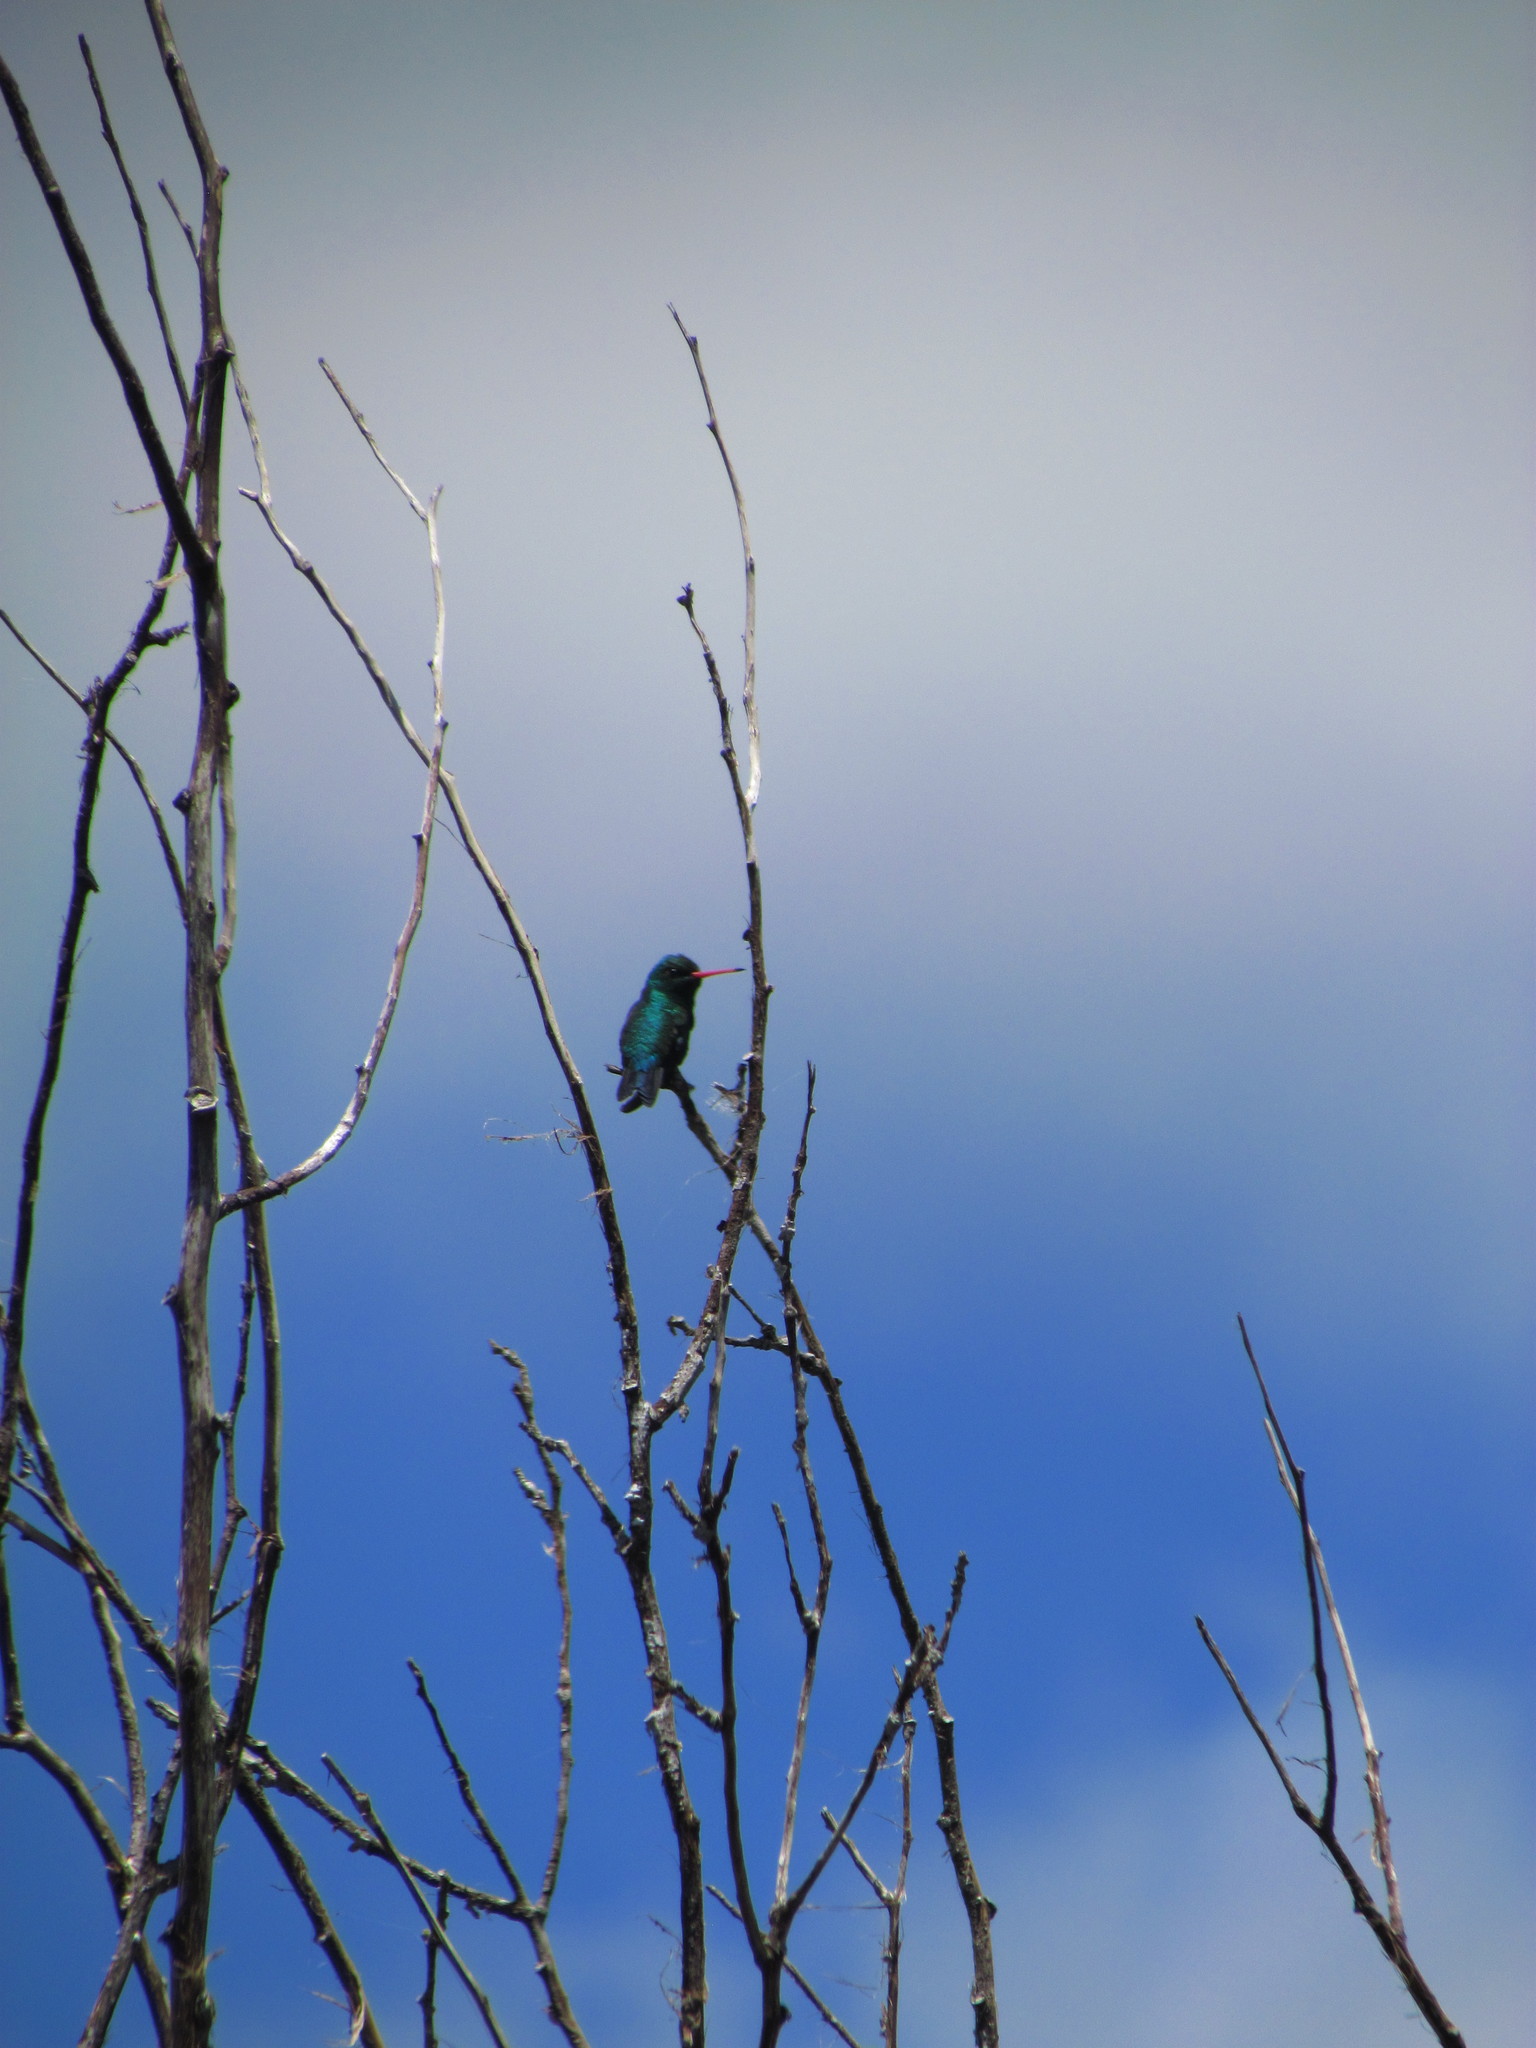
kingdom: Animalia
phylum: Chordata
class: Aves
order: Apodiformes
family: Trochilidae
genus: Chlorostilbon
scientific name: Chlorostilbon lucidus
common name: Glittering-bellied emerald
